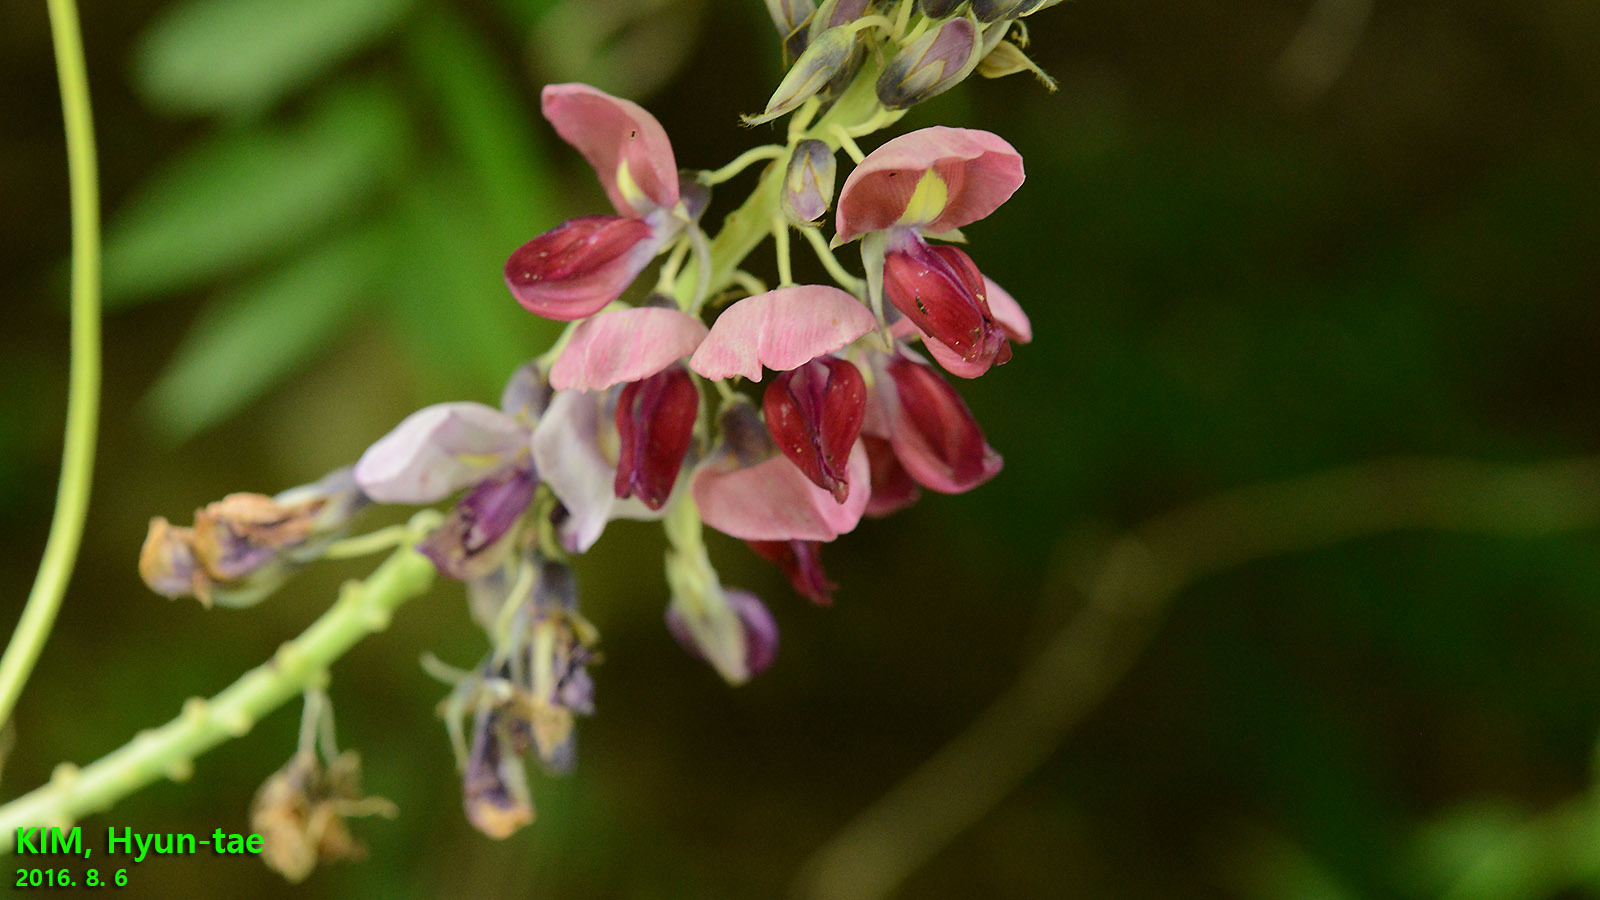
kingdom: Plantae
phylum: Tracheophyta
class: Magnoliopsida
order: Fabales
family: Fabaceae
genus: Pueraria
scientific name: Pueraria montana
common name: Kudzu
